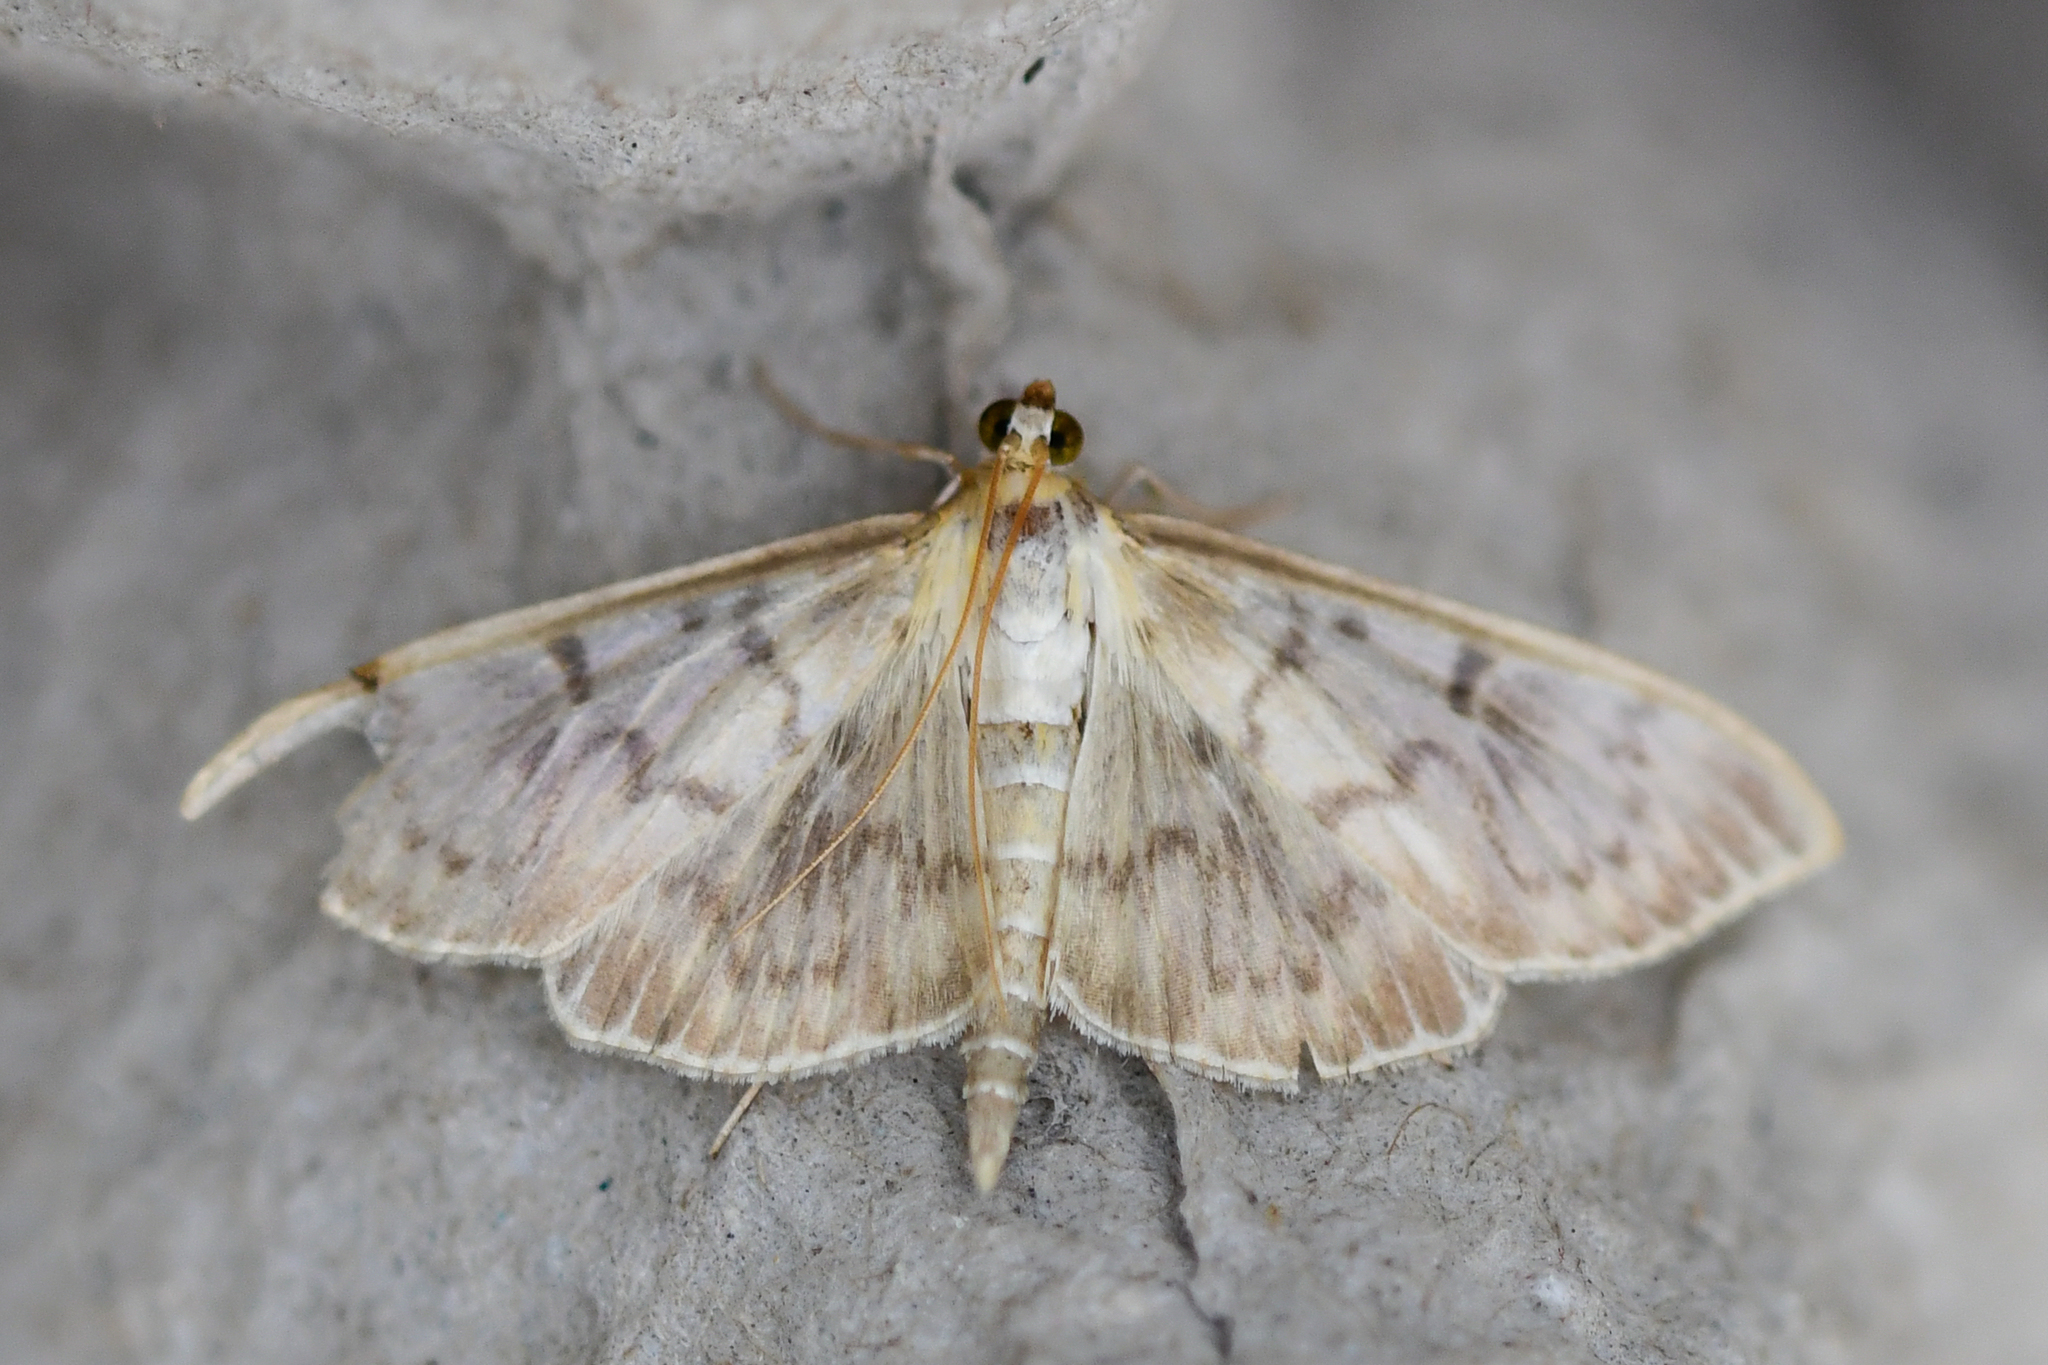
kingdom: Animalia
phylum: Arthropoda
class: Insecta
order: Lepidoptera
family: Crambidae
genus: Patania
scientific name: Patania ruralis
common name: Mother of pearl
